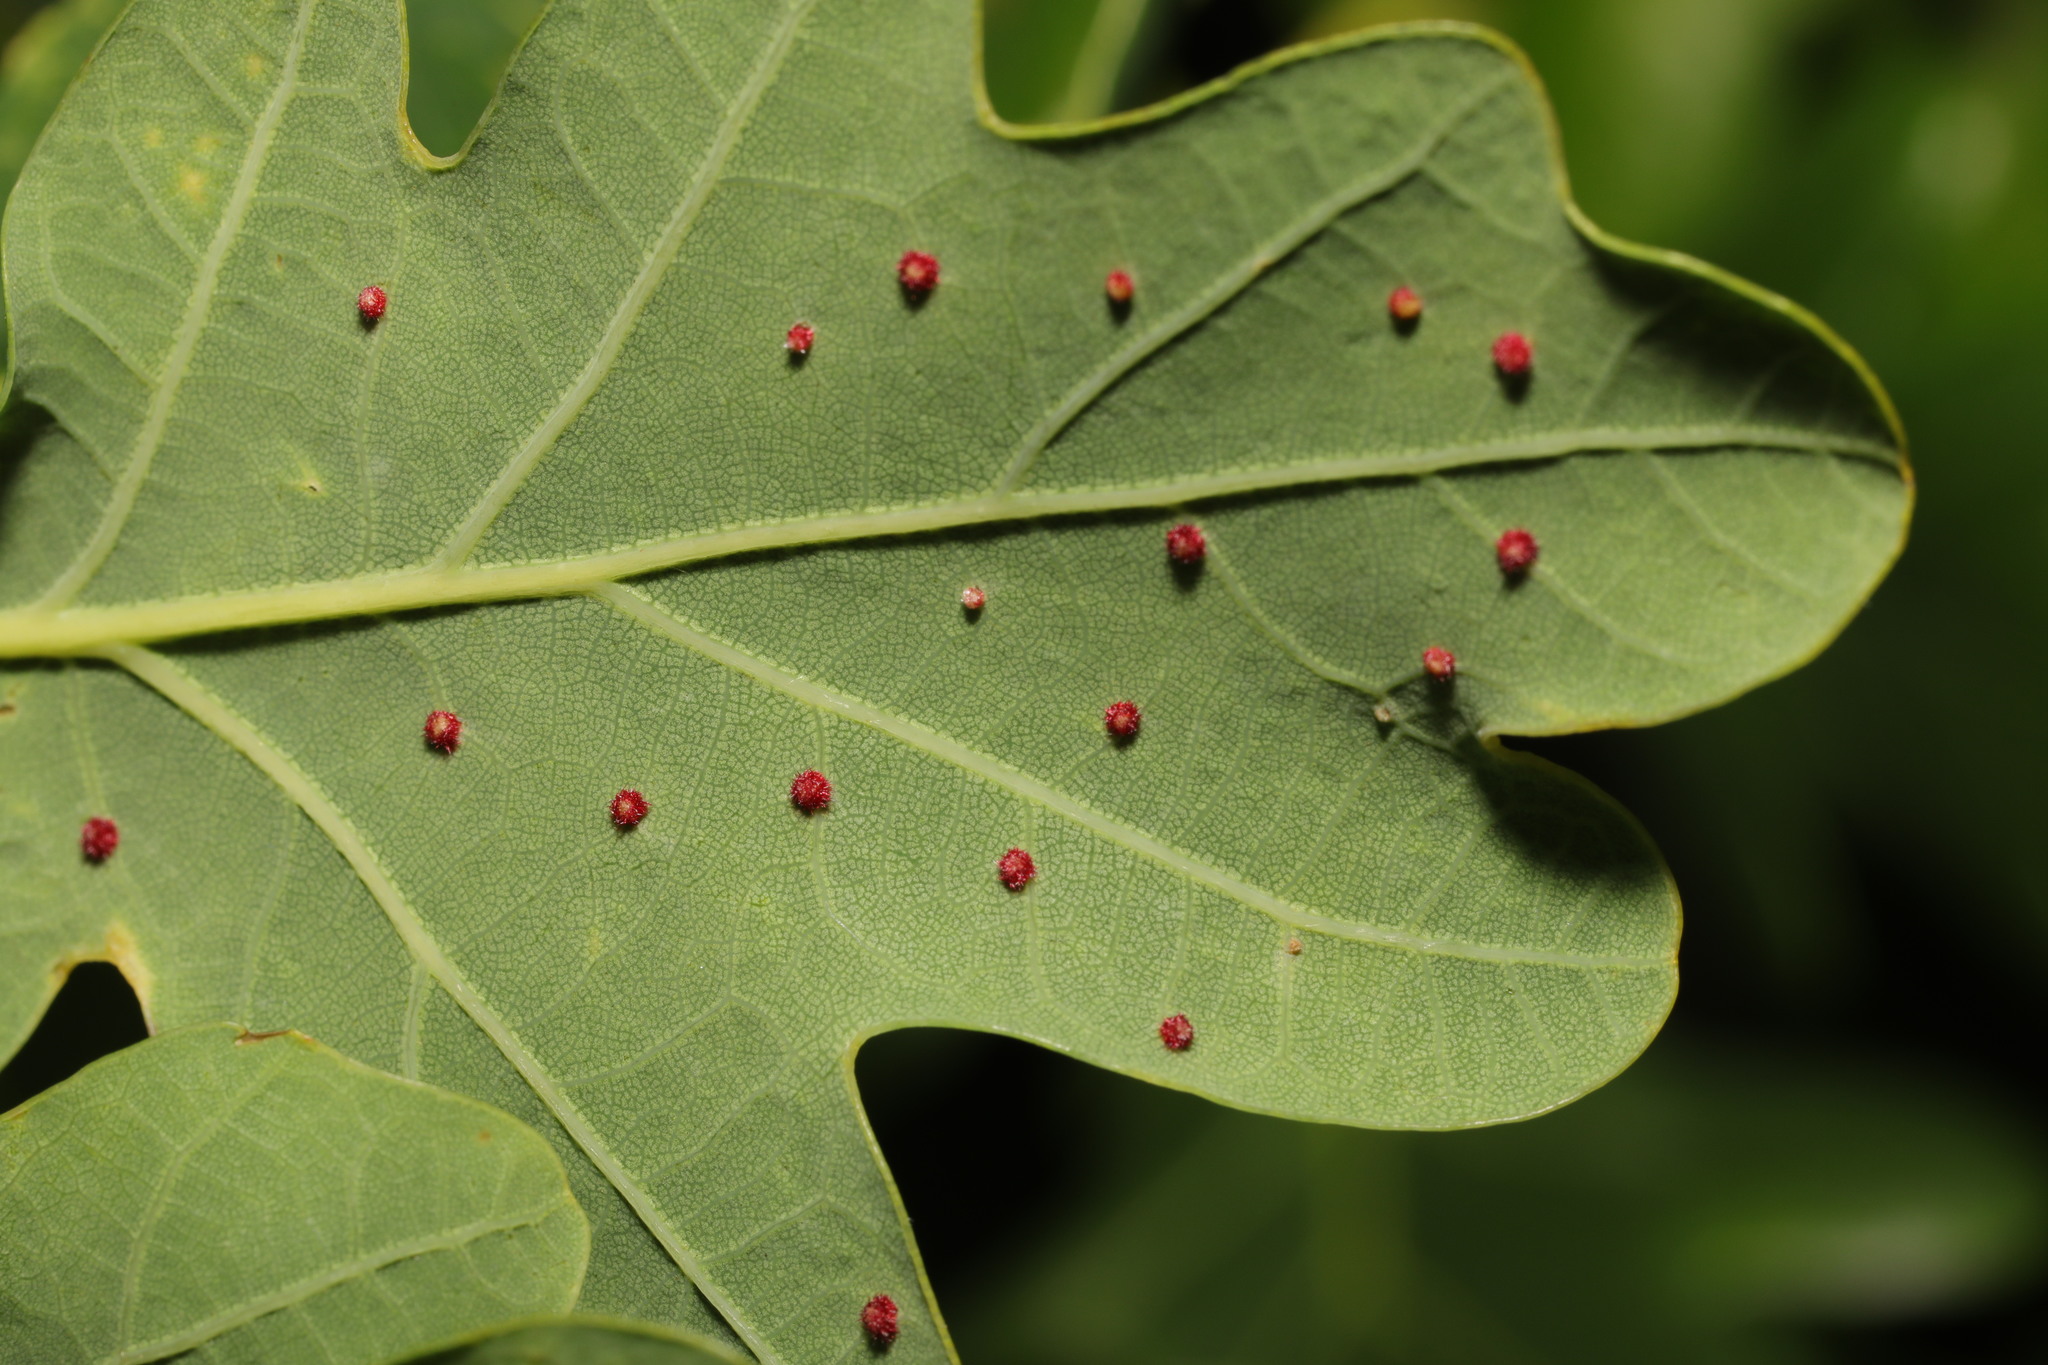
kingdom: Animalia
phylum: Arthropoda
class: Insecta
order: Hymenoptera
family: Cynipidae
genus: Neuroterus
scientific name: Neuroterus quercusbaccarum
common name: Common spangle gall
